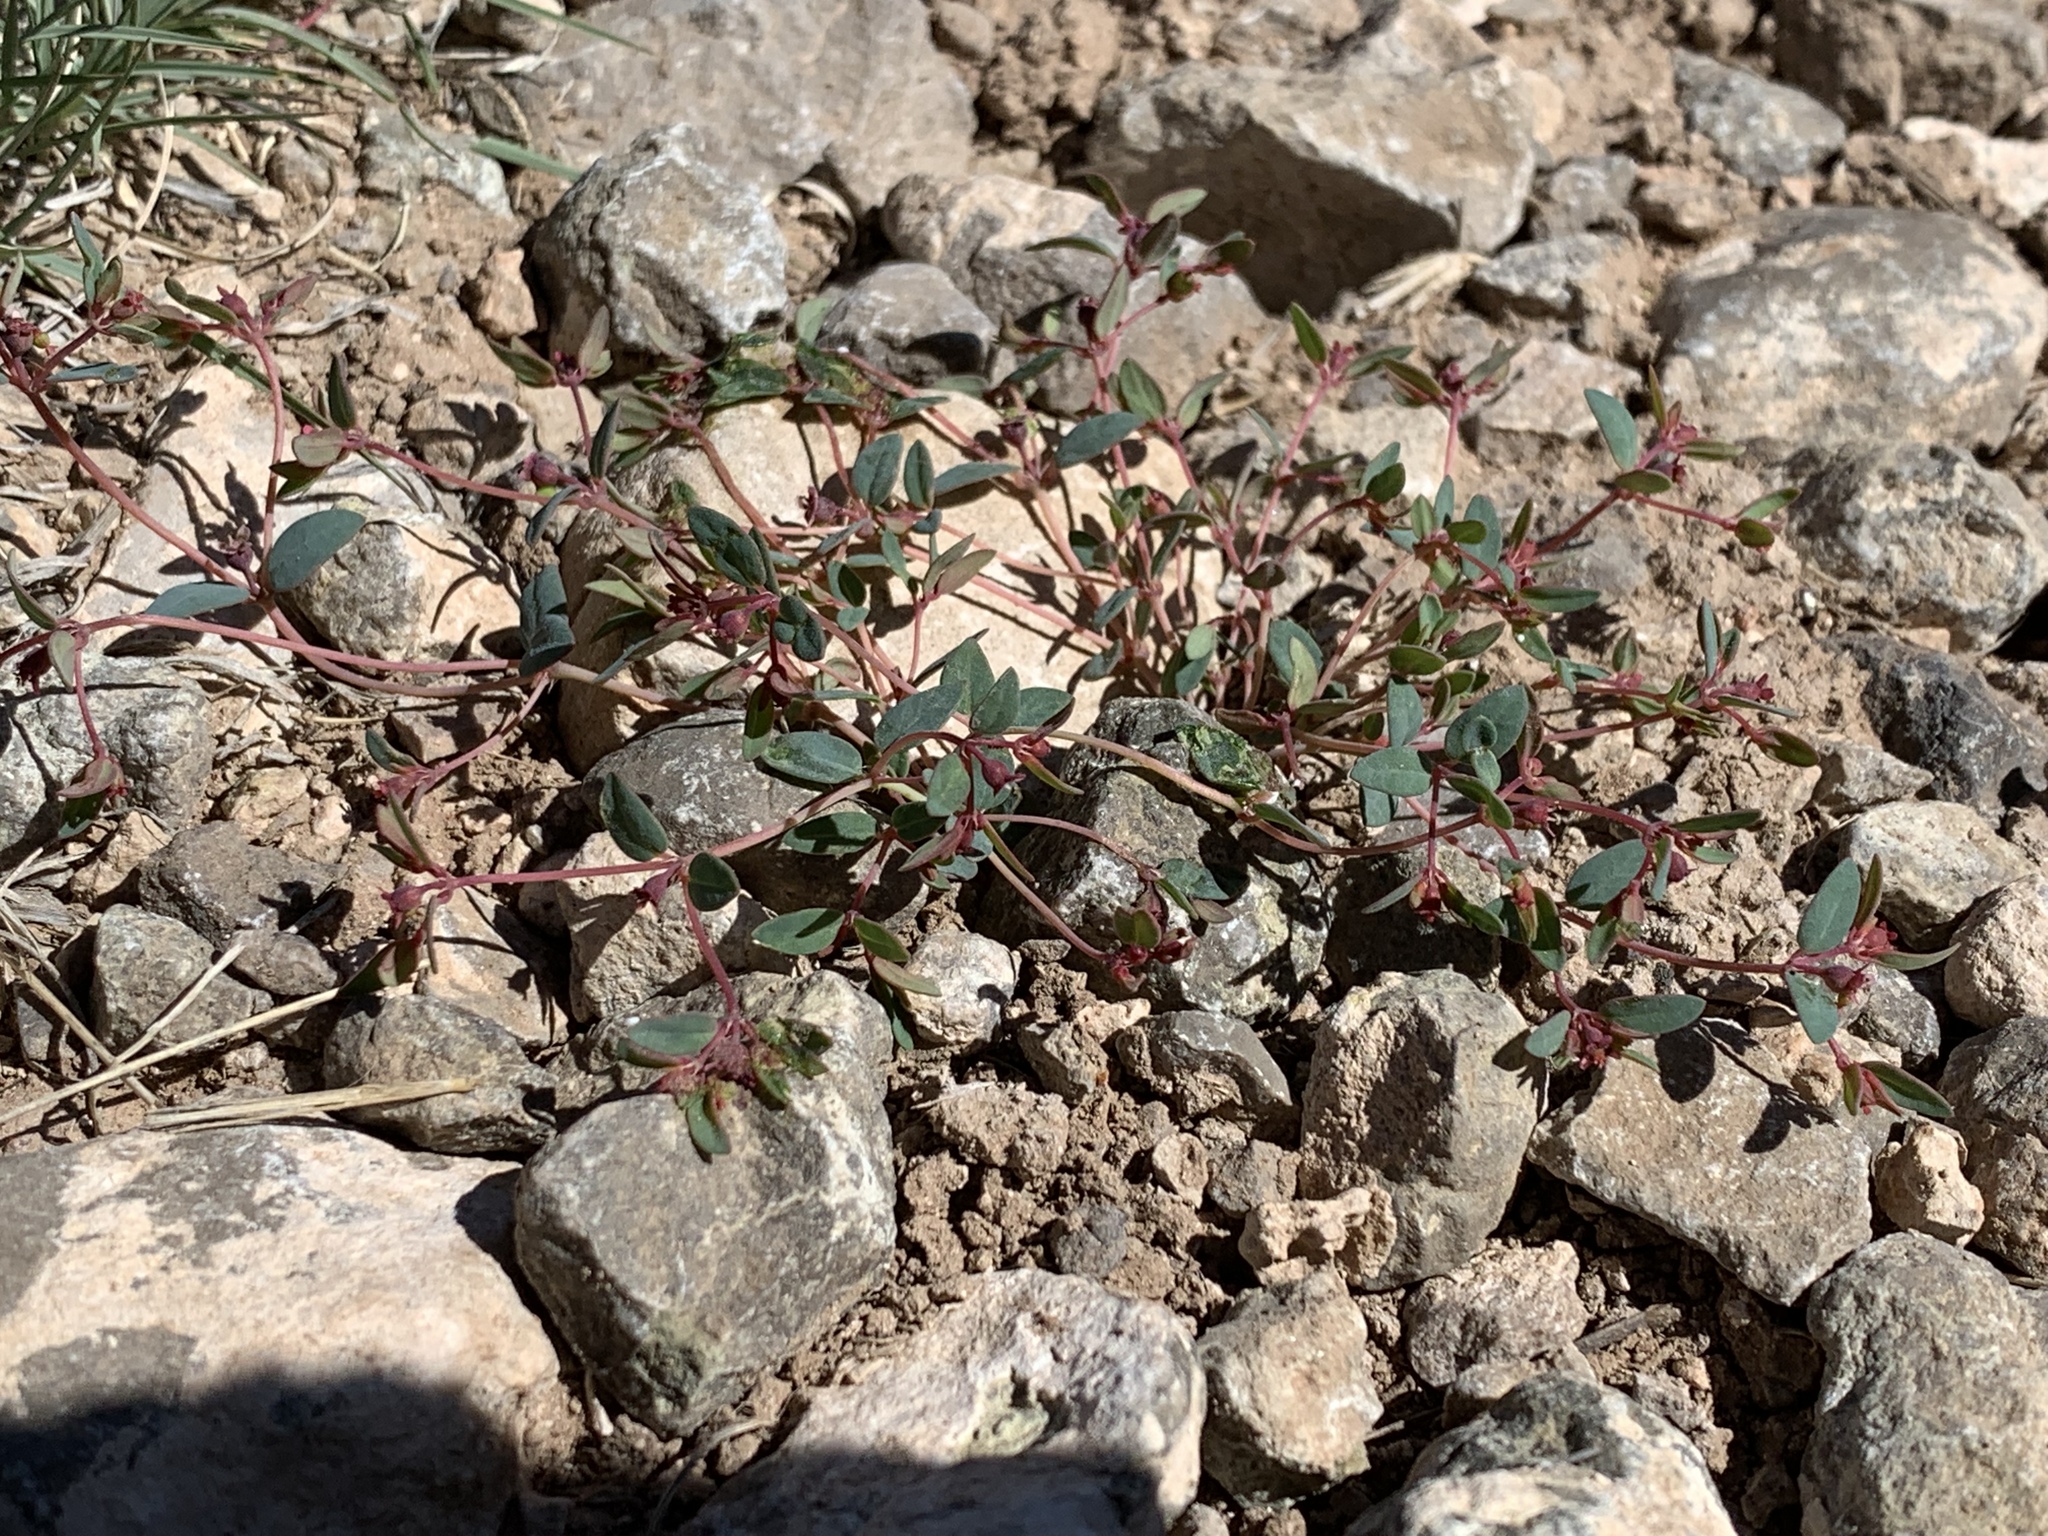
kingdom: Plantae
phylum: Tracheophyta
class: Magnoliopsida
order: Malpighiales
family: Euphorbiaceae
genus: Euphorbia
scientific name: Euphorbia chaetocalyx
